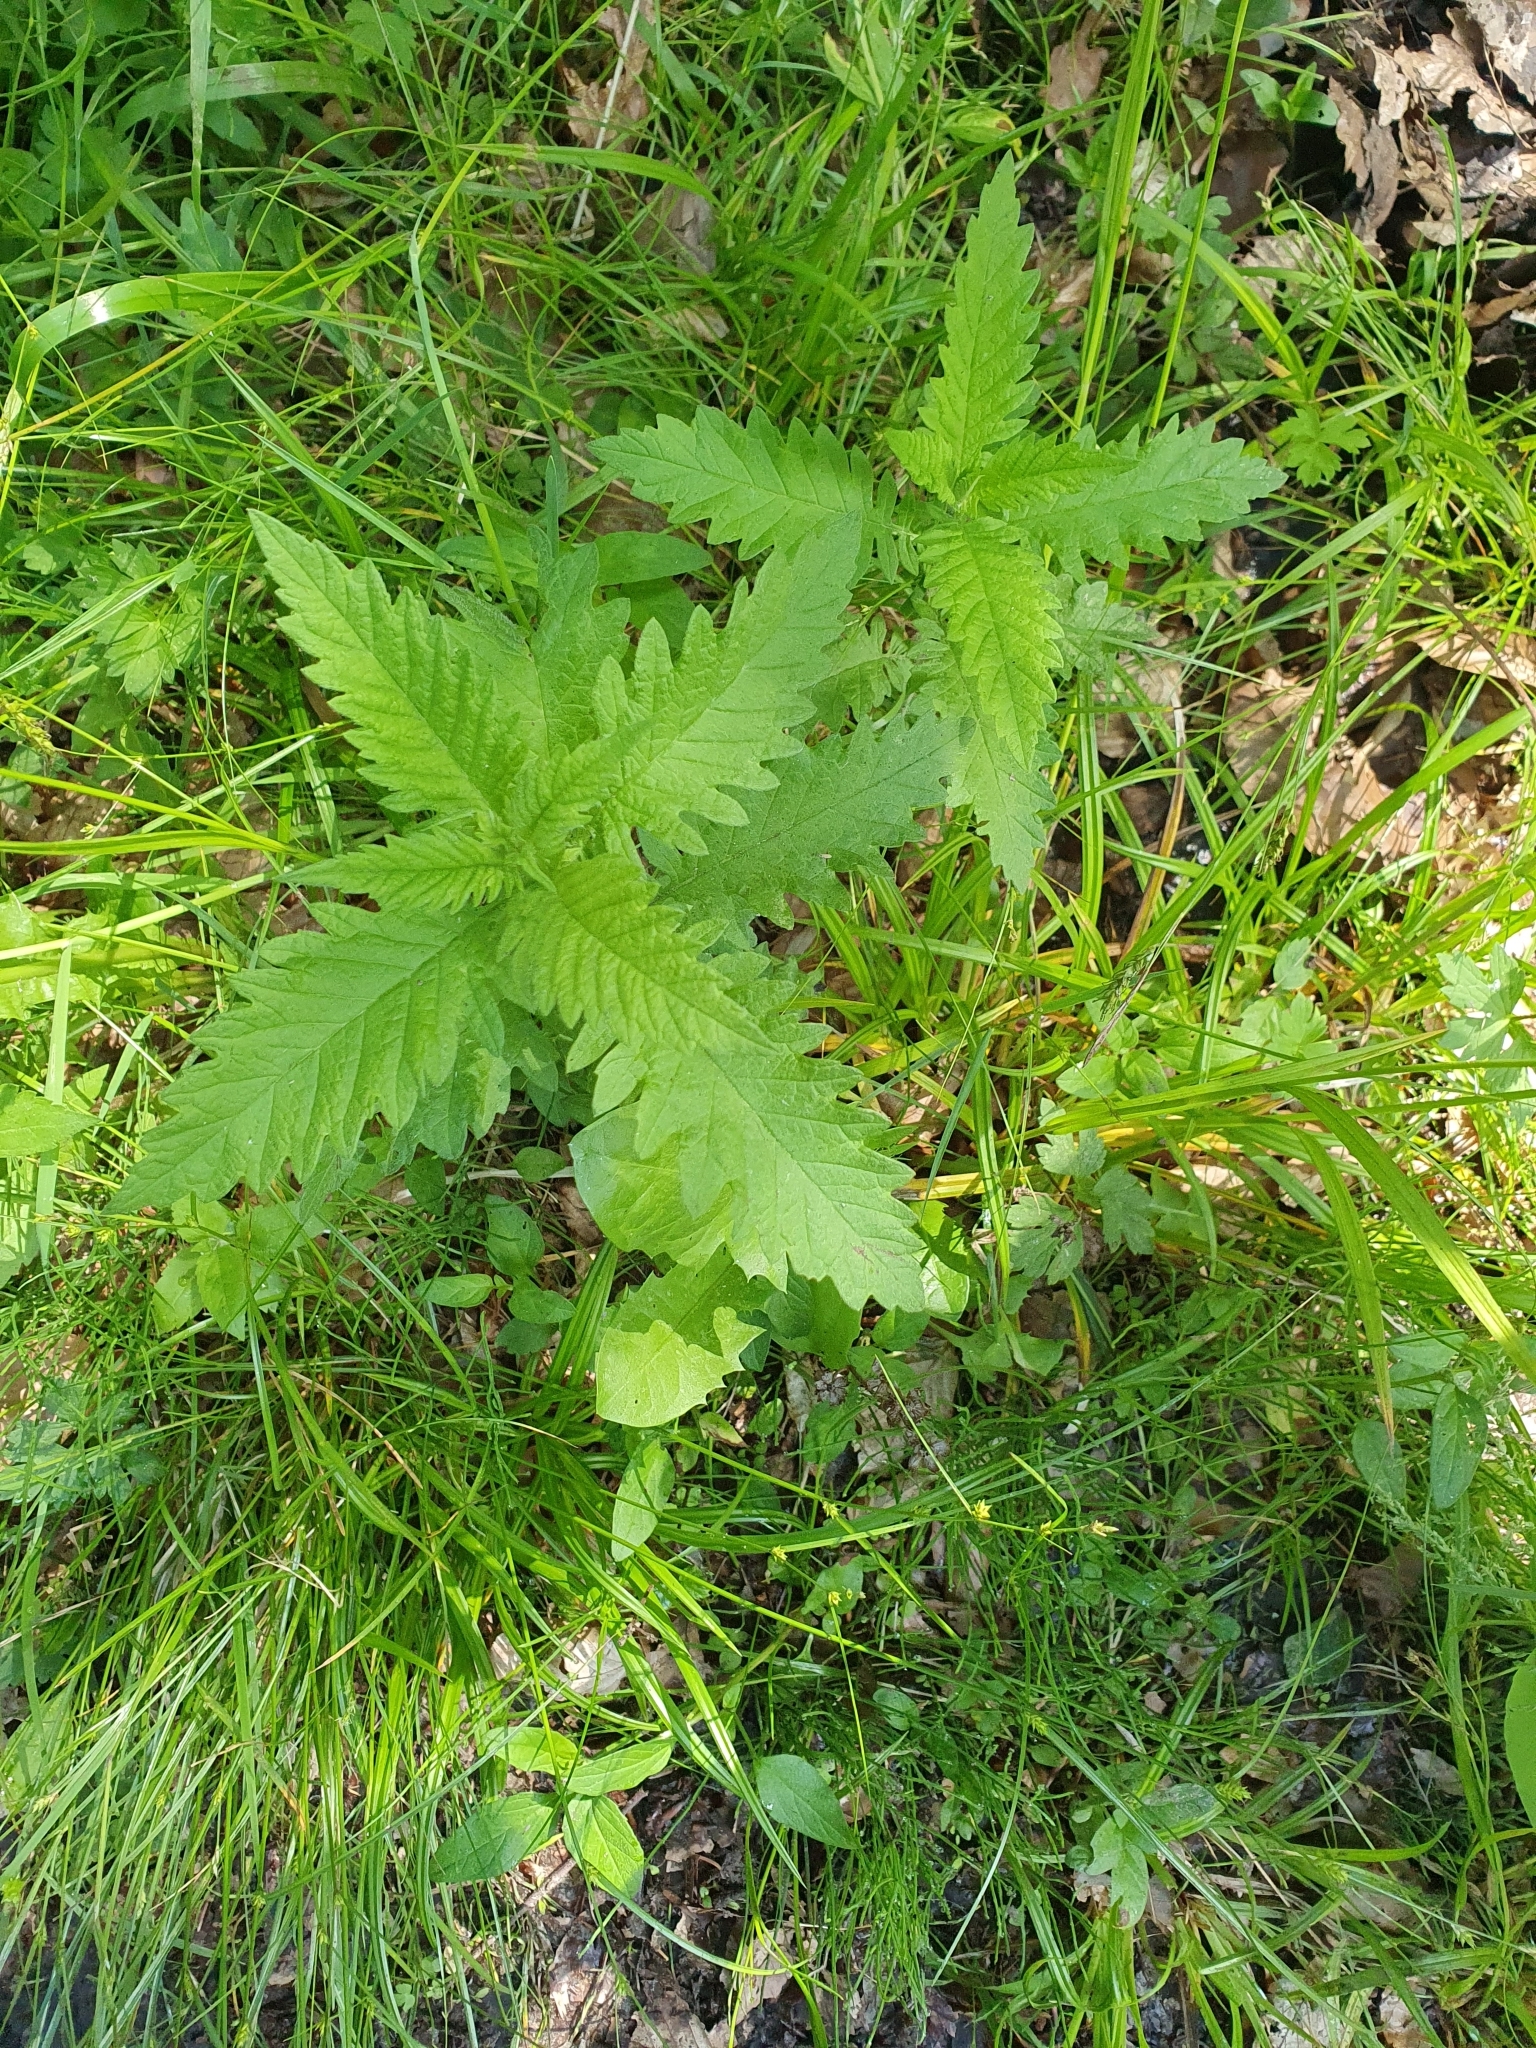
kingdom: Plantae
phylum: Tracheophyta
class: Magnoliopsida
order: Lamiales
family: Lamiaceae
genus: Lycopus
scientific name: Lycopus europaeus
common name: European bugleweed
